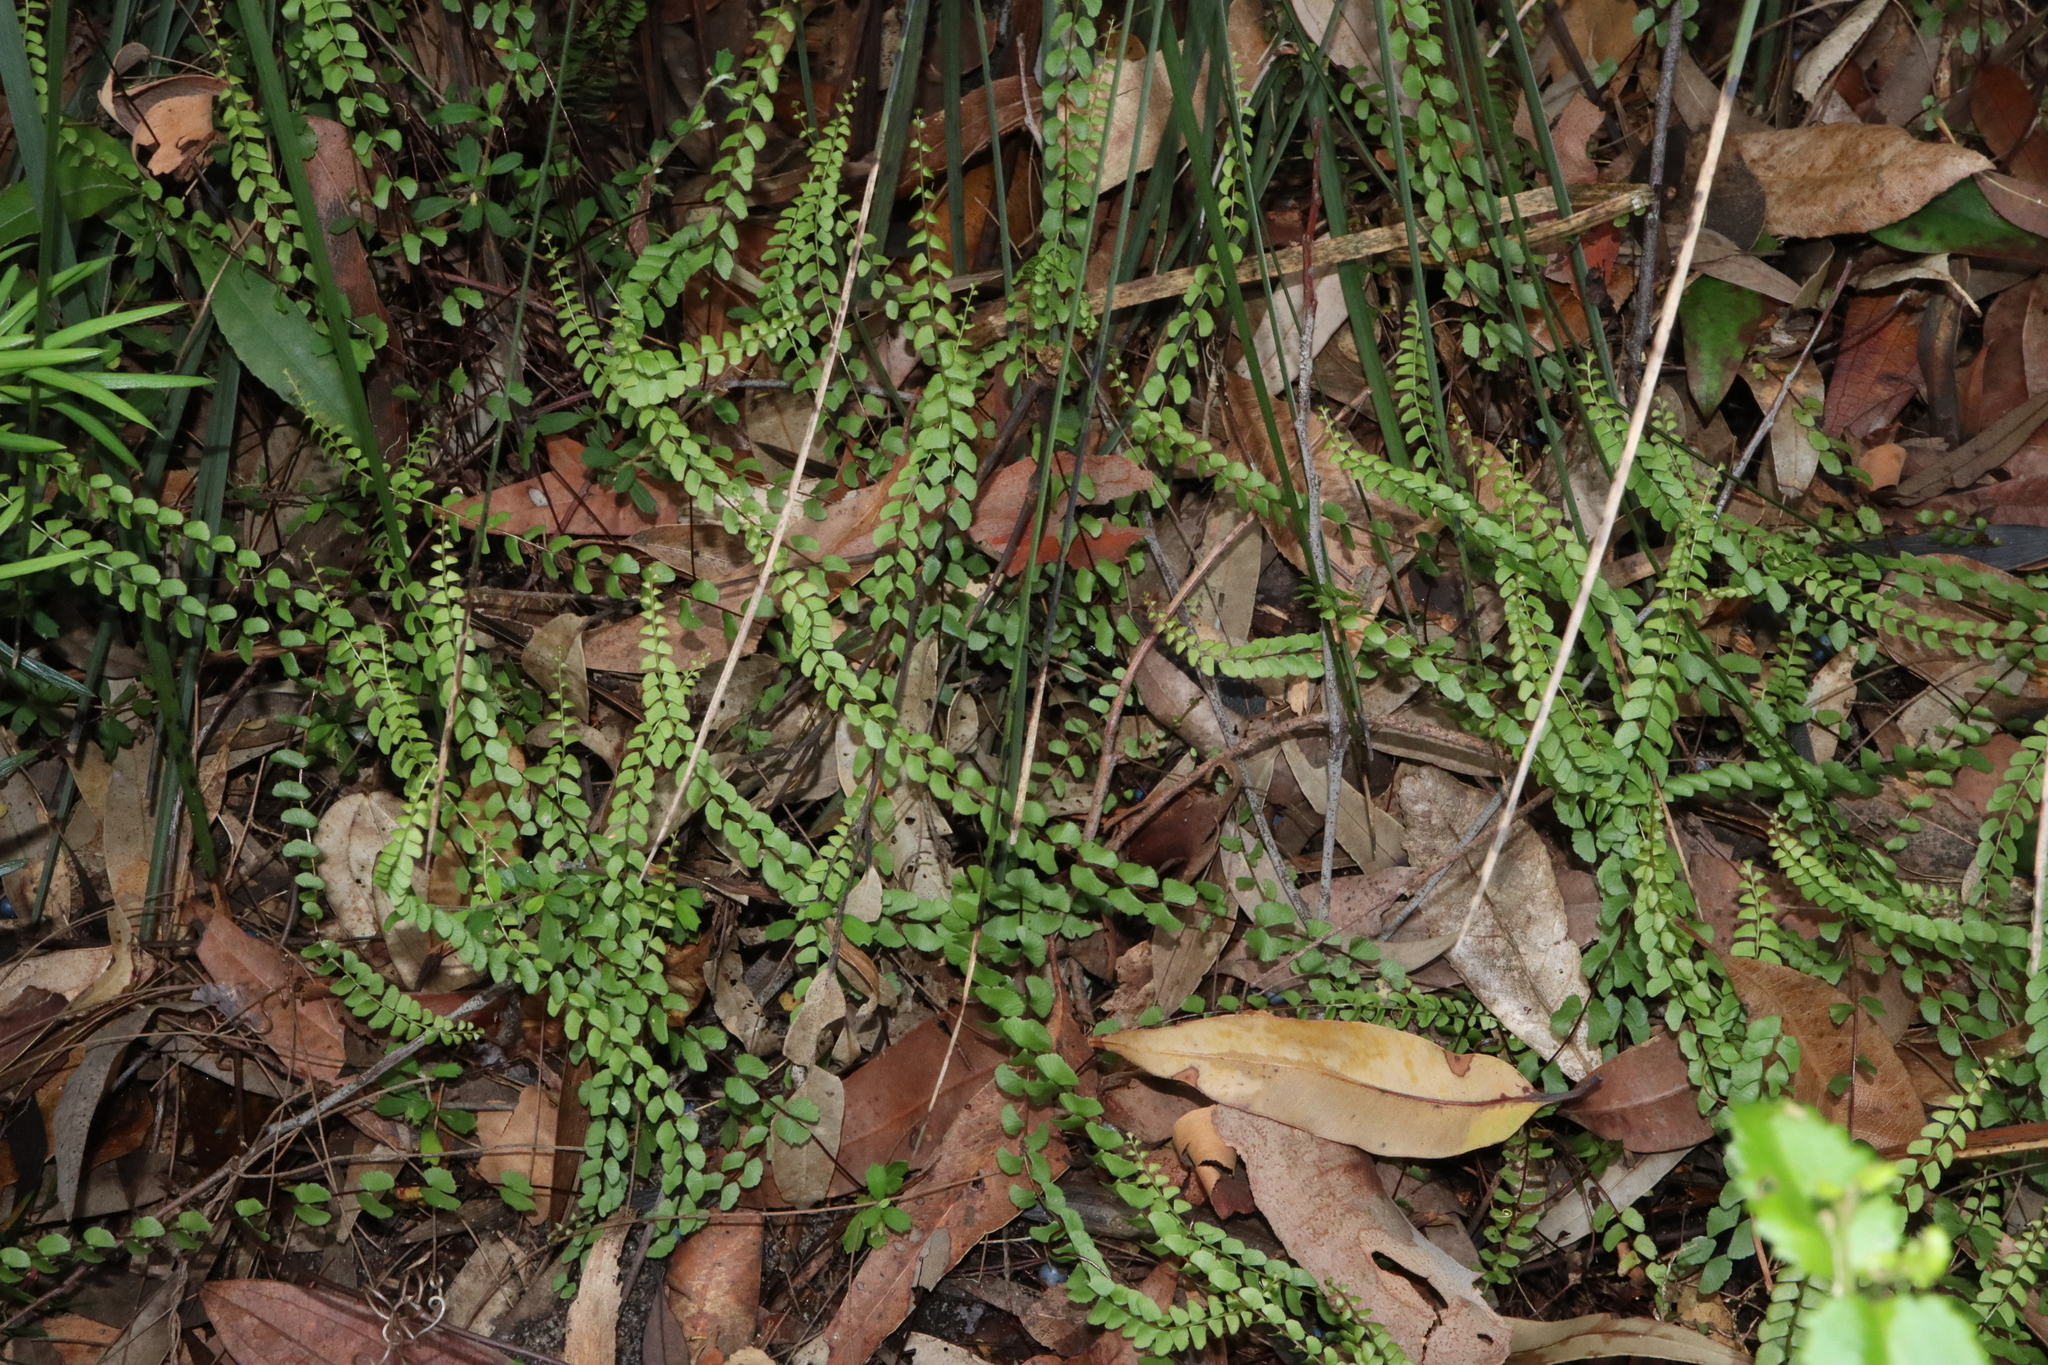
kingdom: Plantae
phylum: Tracheophyta
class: Polypodiopsida
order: Polypodiales
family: Lindsaeaceae
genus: Lindsaea
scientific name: Lindsaea linearis
